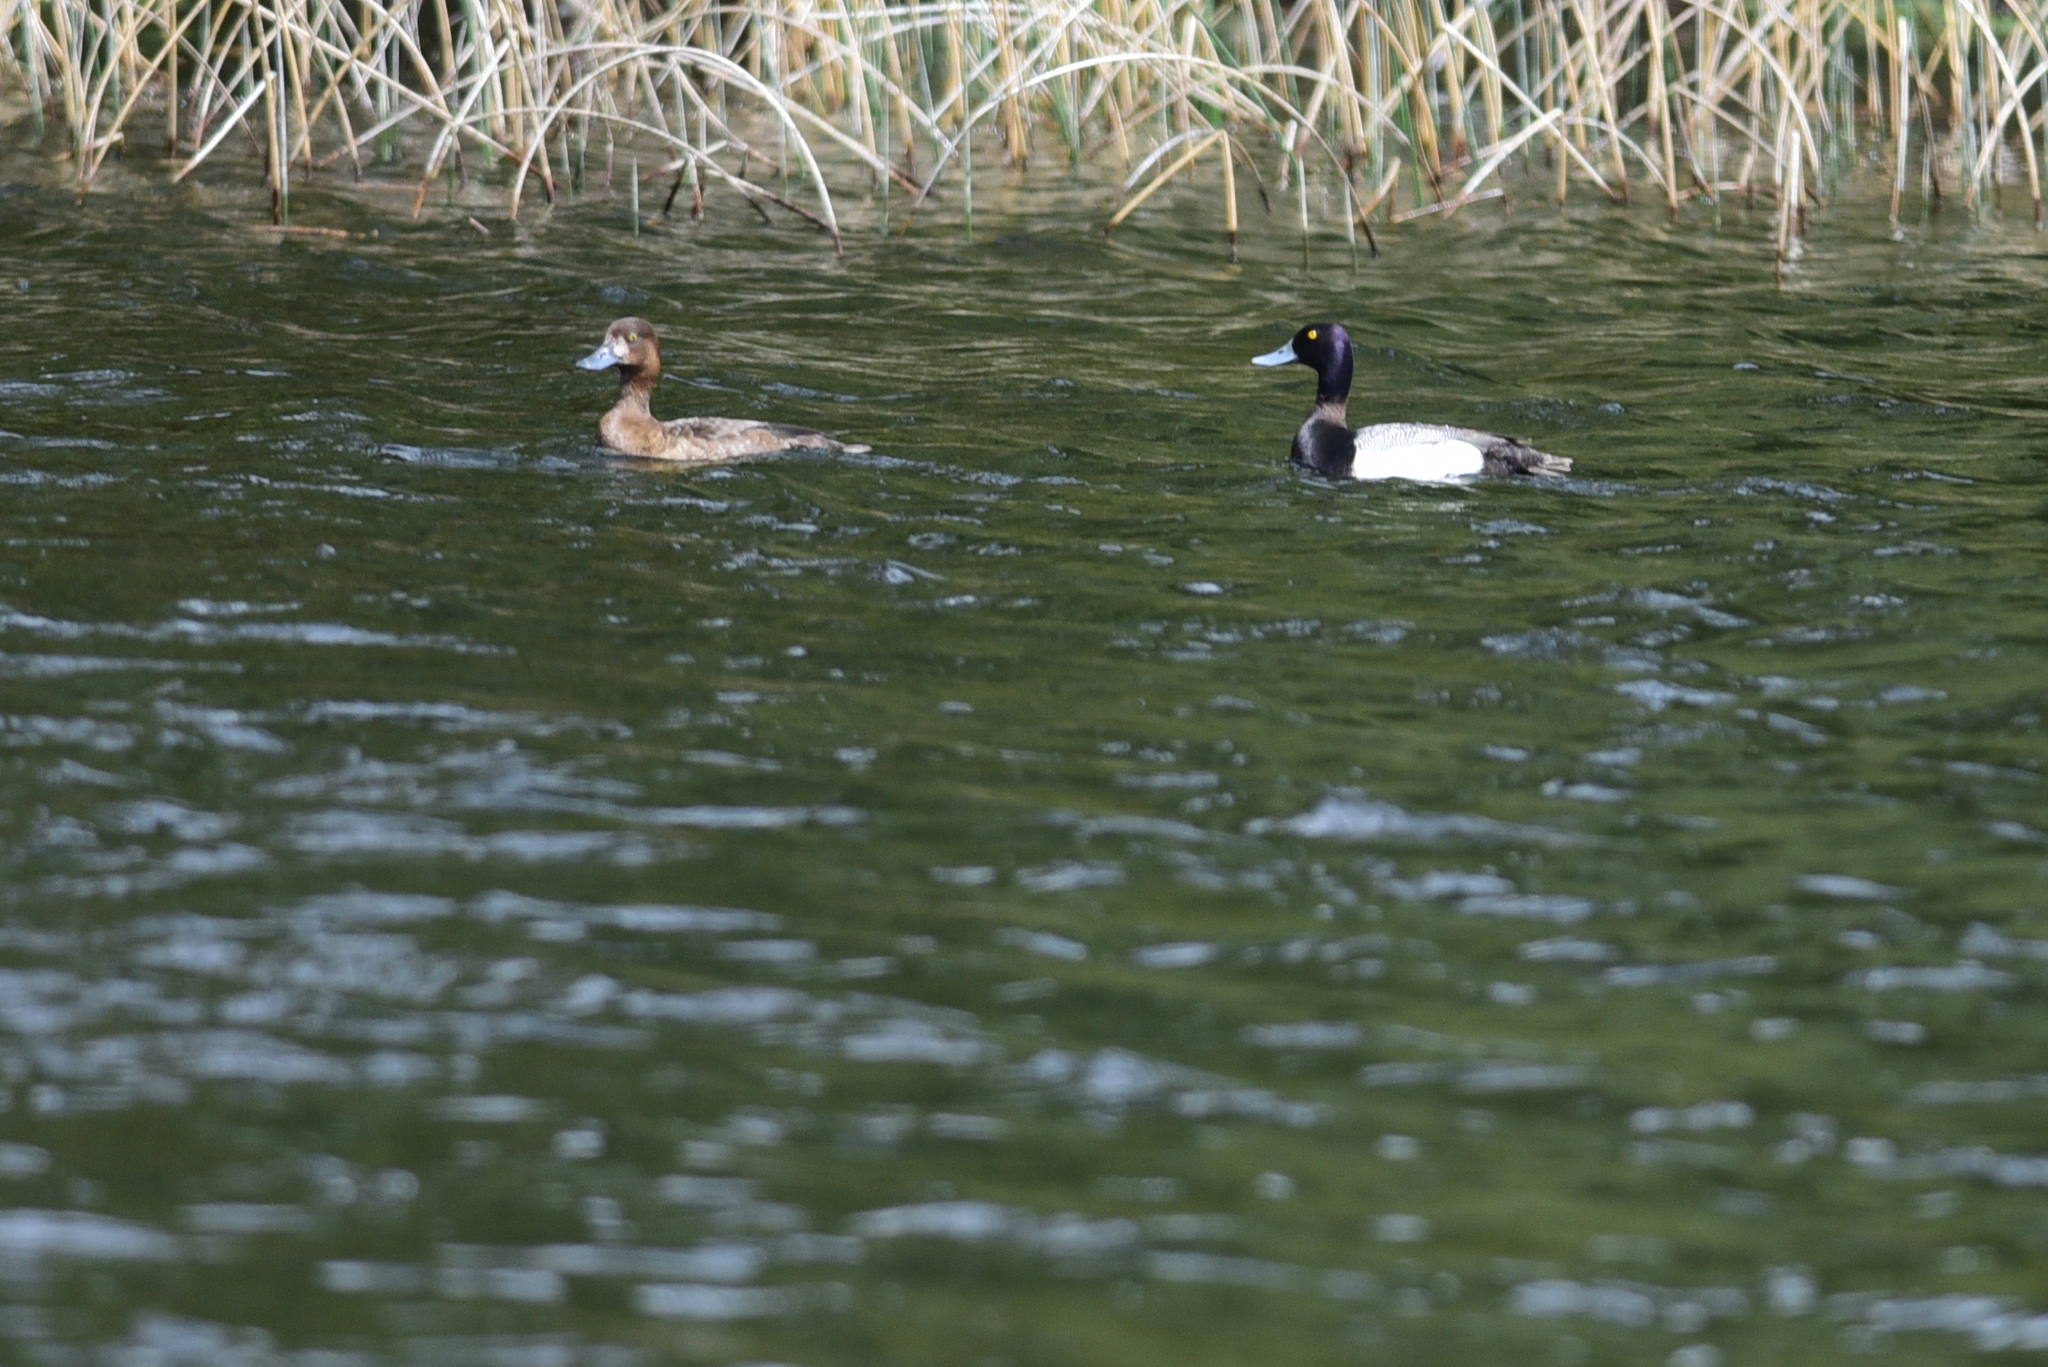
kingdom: Animalia
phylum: Chordata
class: Aves
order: Anseriformes
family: Anatidae
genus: Aythya
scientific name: Aythya marila
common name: Greater scaup
